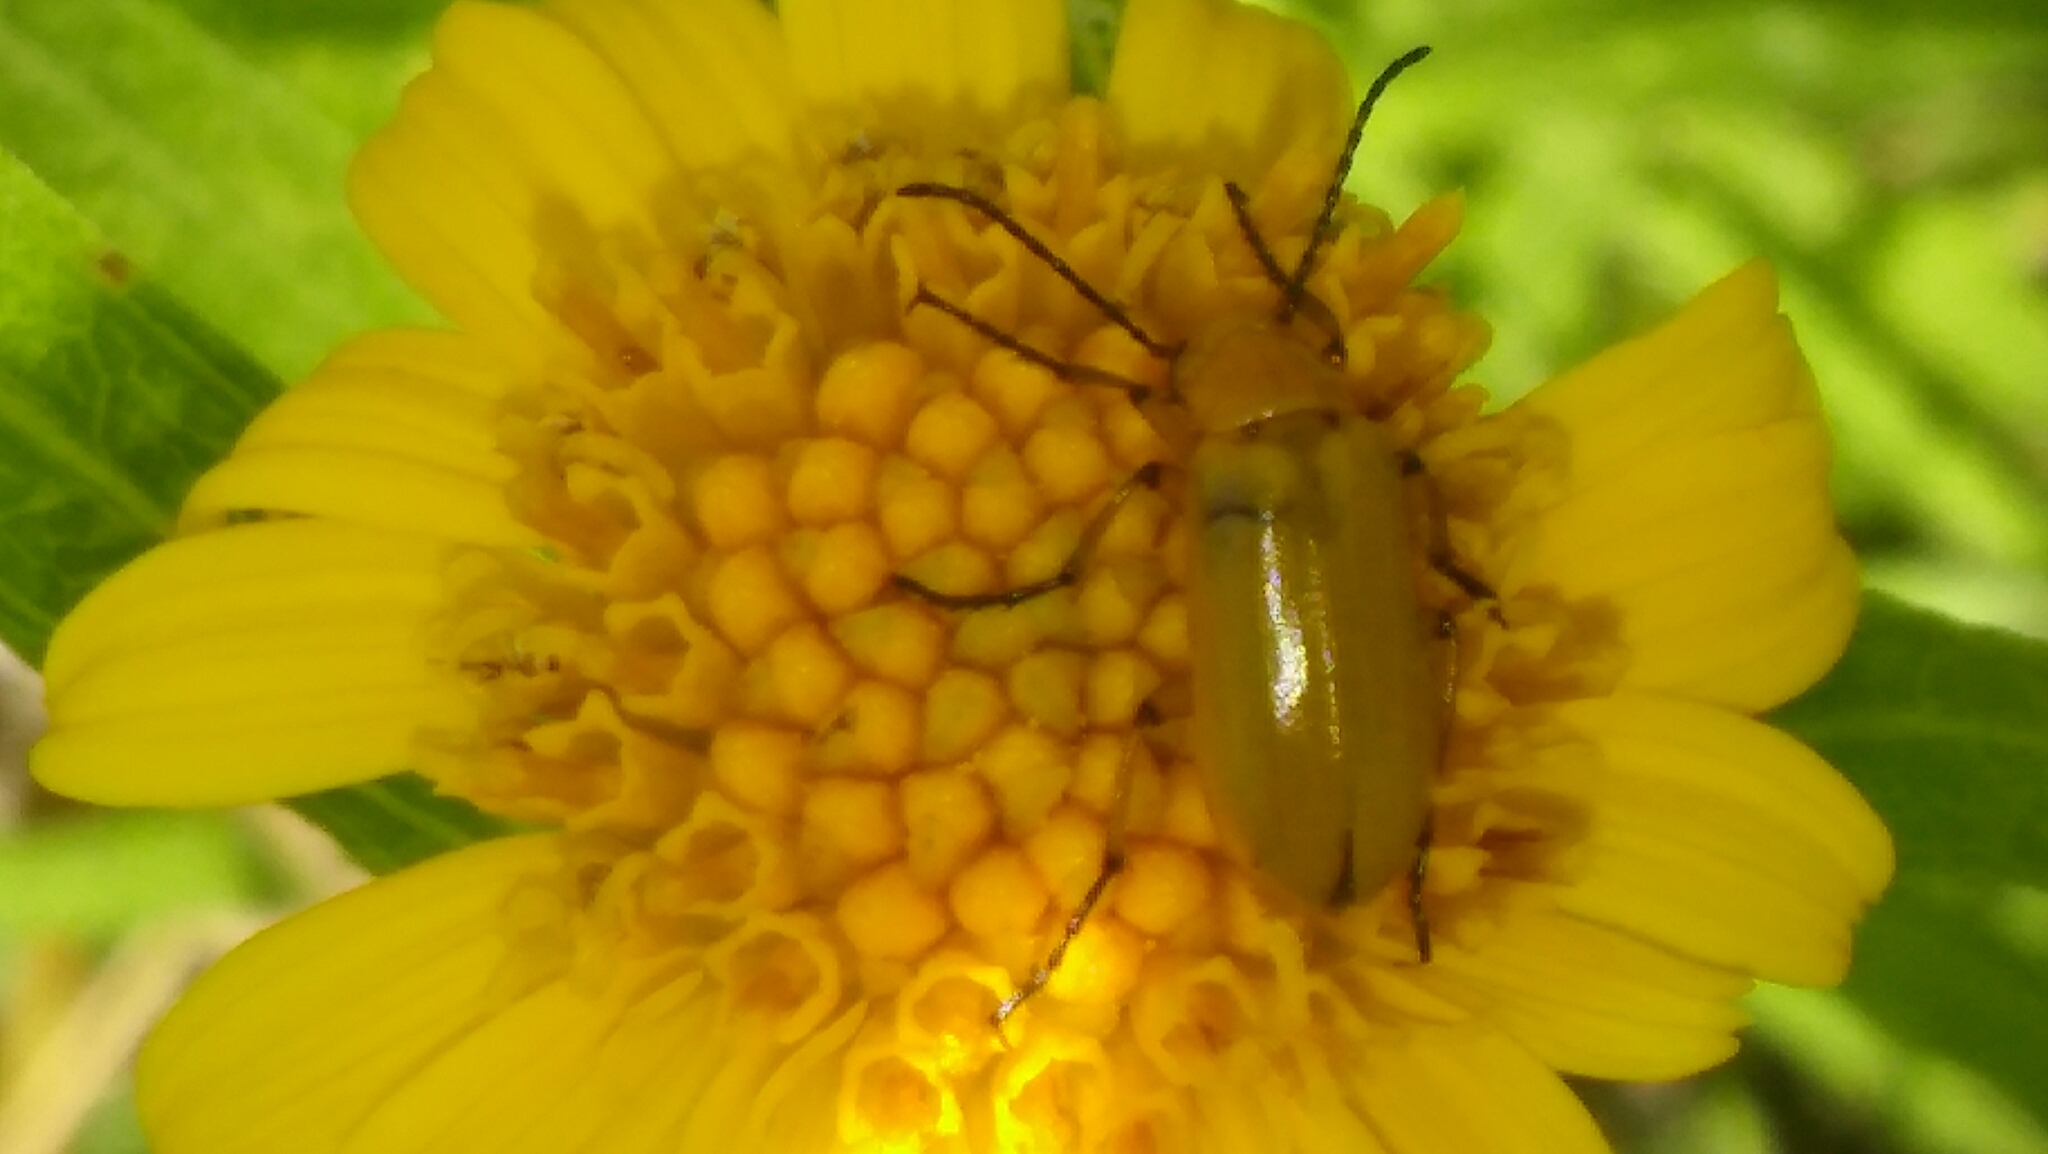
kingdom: Animalia
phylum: Arthropoda
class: Insecta
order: Coleoptera
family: Meloidae
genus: Nemognatha
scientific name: Nemognatha
